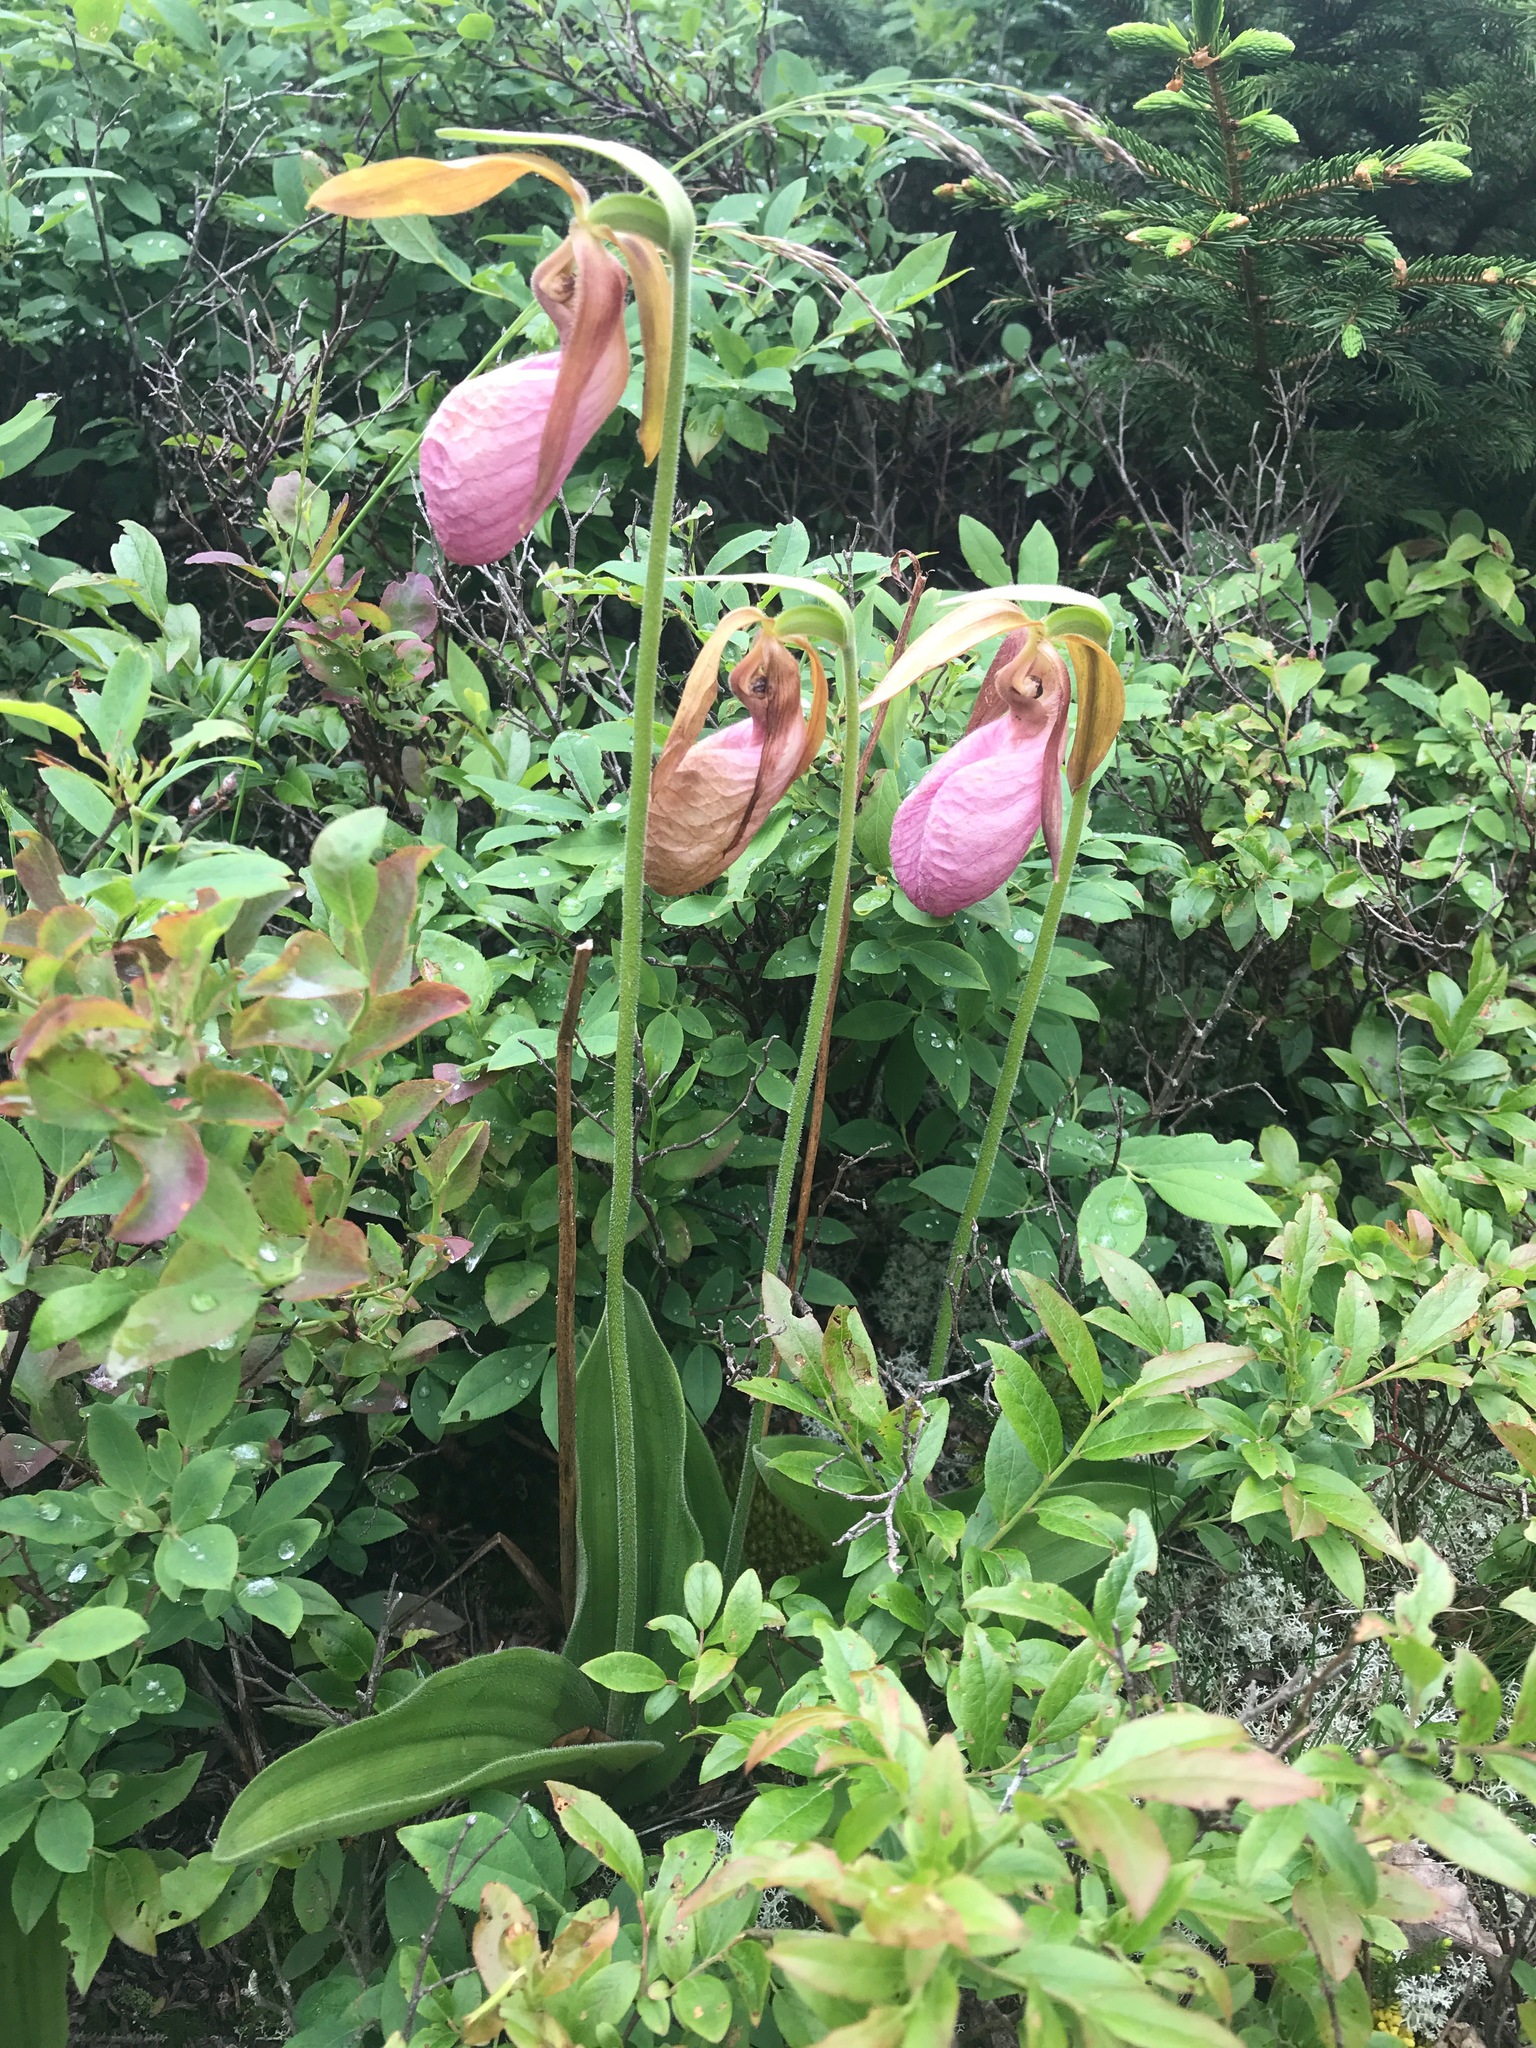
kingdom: Plantae
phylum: Tracheophyta
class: Liliopsida
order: Asparagales
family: Orchidaceae
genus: Cypripedium
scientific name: Cypripedium acaule
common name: Pink lady's-slipper
